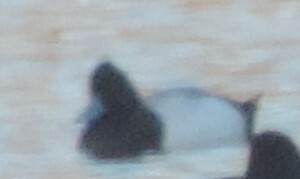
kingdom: Animalia
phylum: Chordata
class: Aves
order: Anseriformes
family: Anatidae
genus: Aythya
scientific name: Aythya affinis
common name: Lesser scaup
